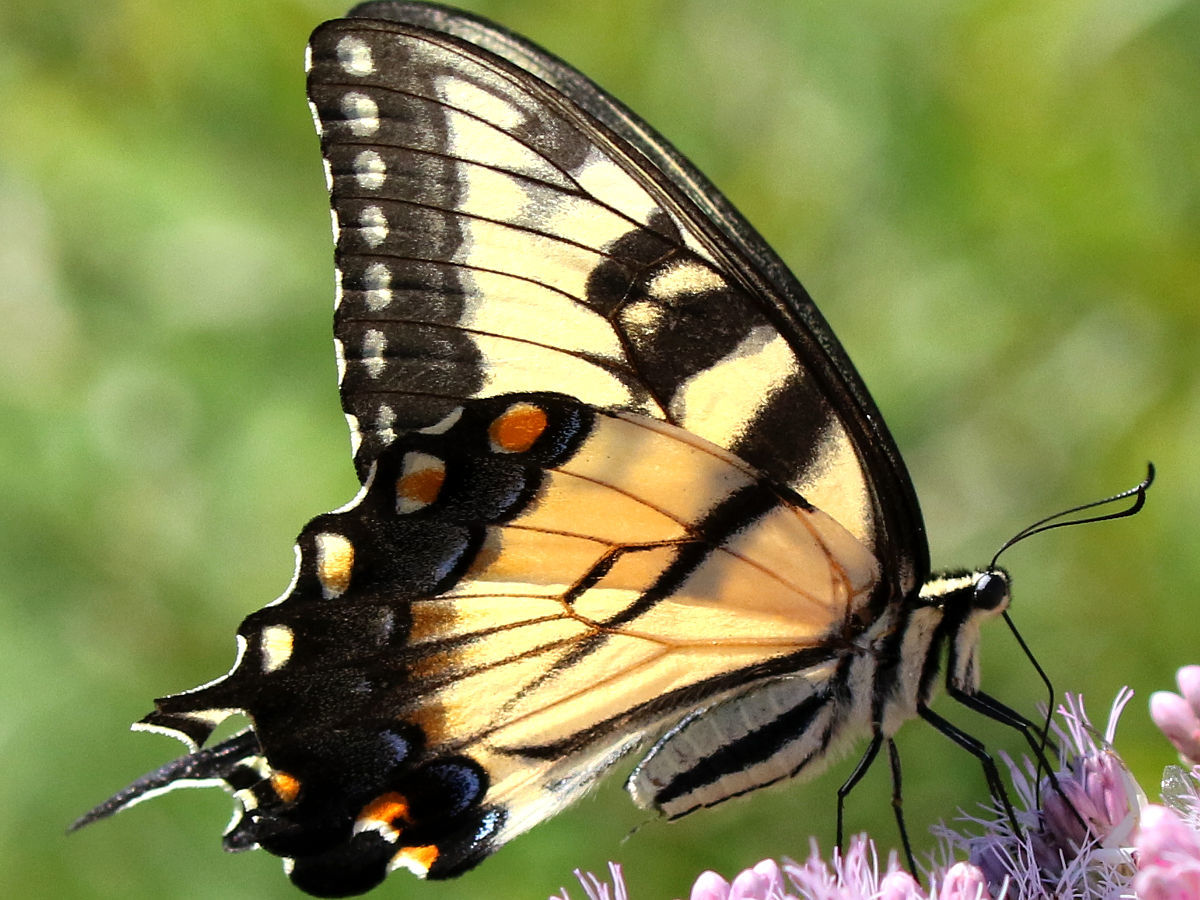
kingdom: Animalia
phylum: Arthropoda
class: Insecta
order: Lepidoptera
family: Papilionidae
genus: Papilio
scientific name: Papilio glaucus
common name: Tiger swallowtail
